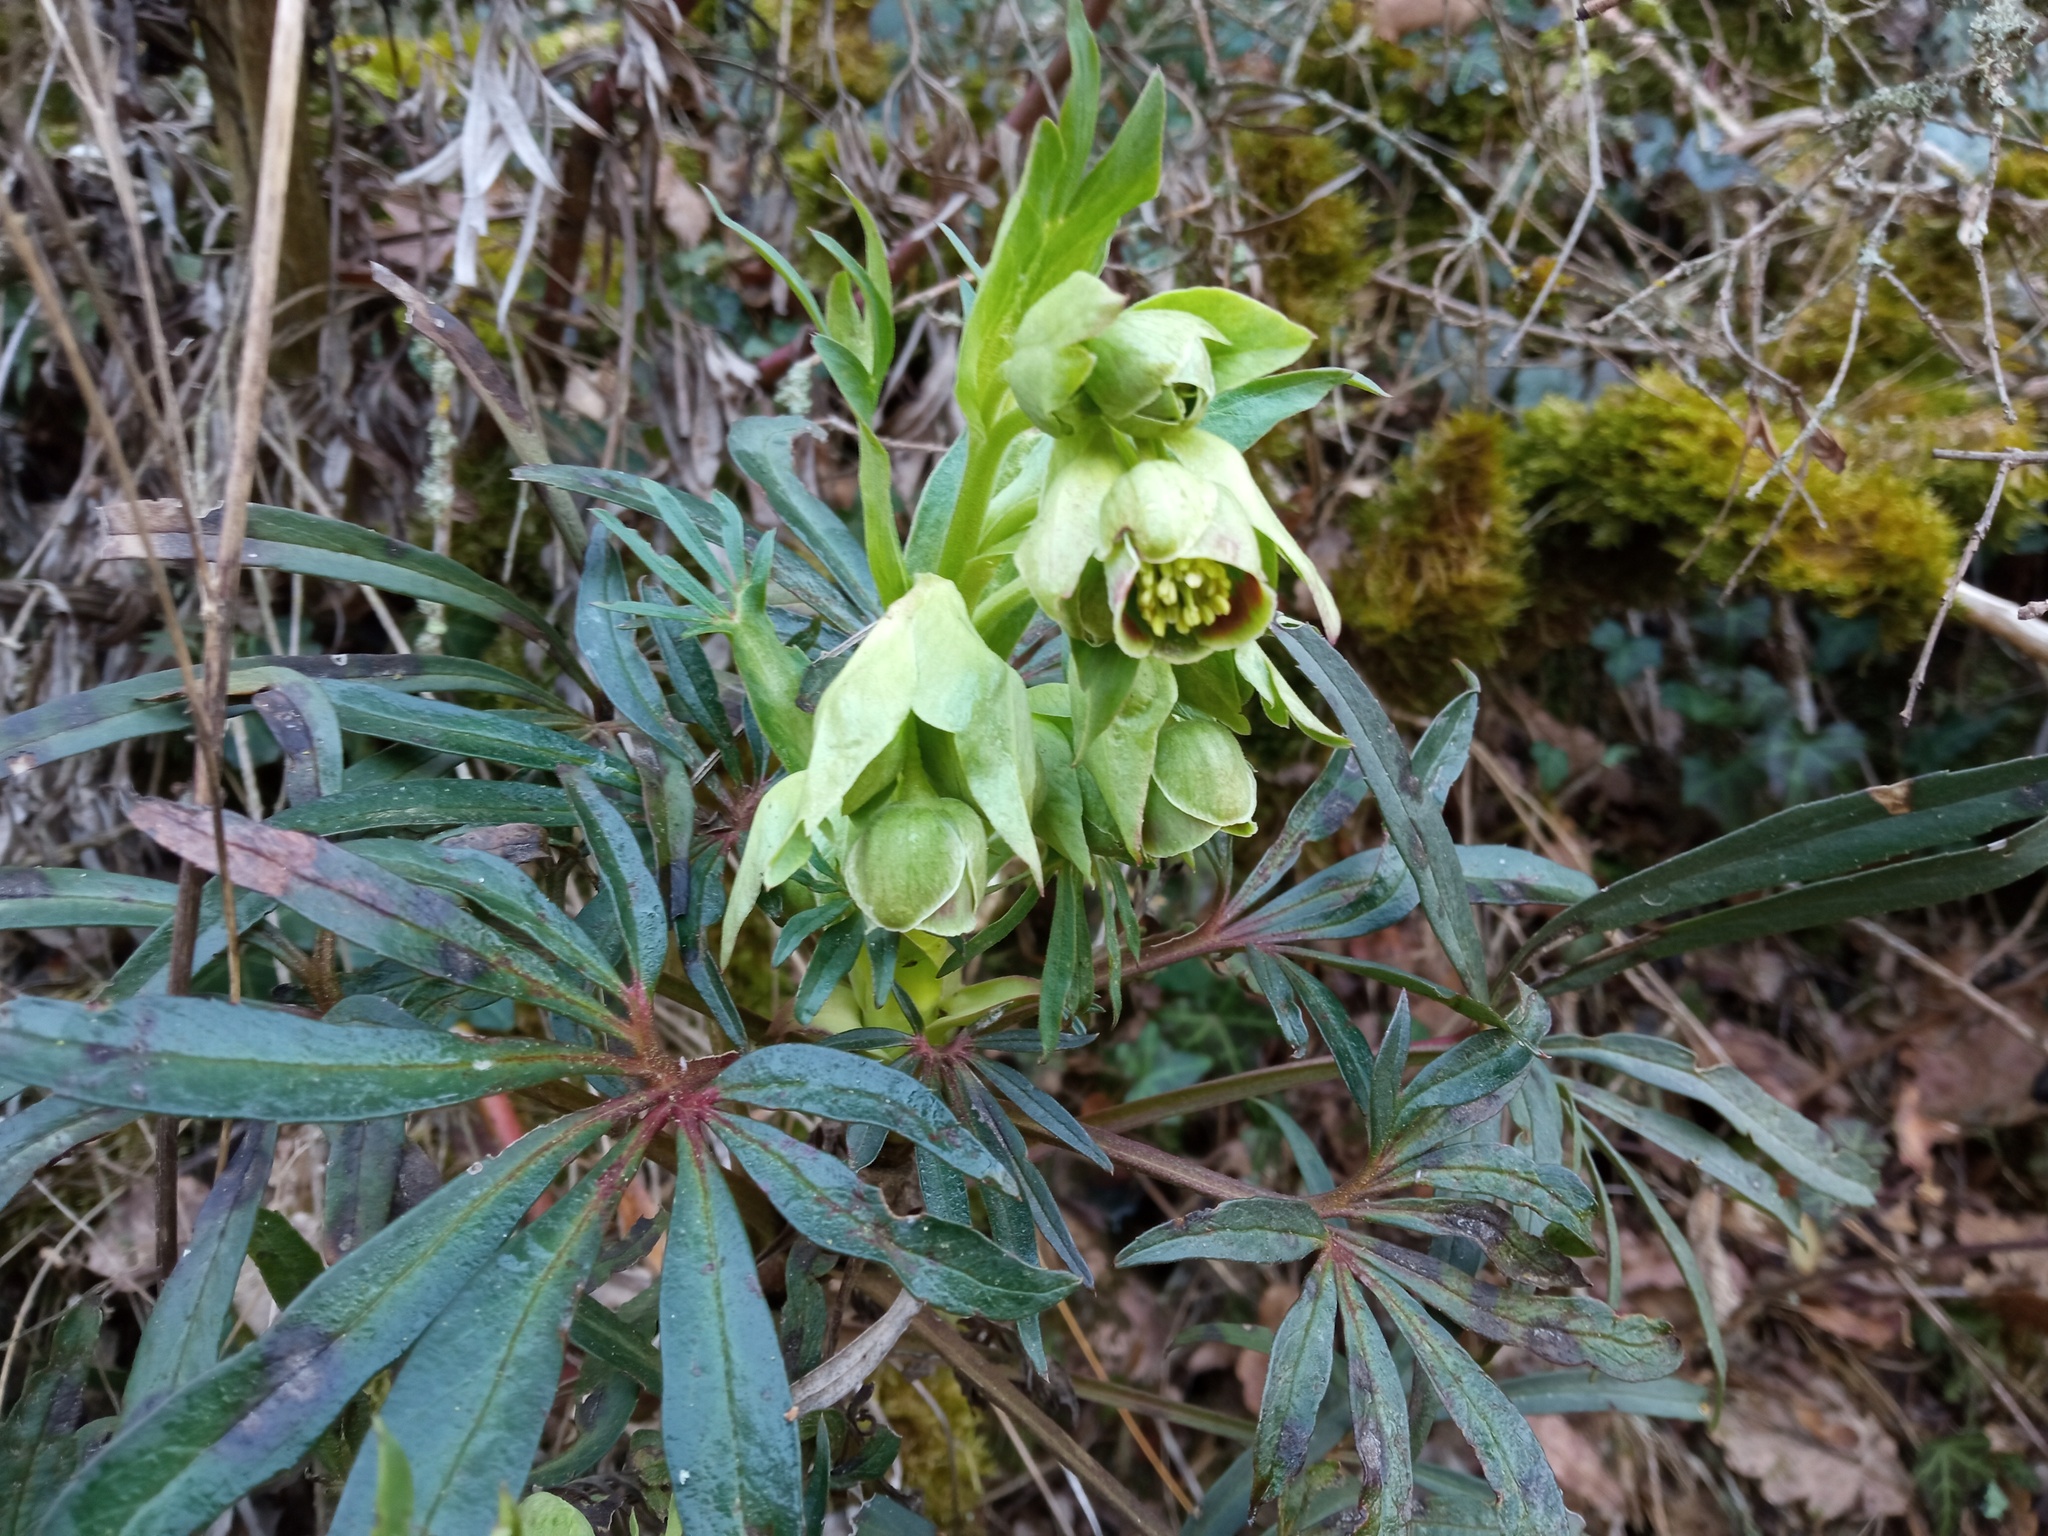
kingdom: Plantae
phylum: Tracheophyta
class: Magnoliopsida
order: Ranunculales
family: Ranunculaceae
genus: Helleborus
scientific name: Helleborus foetidus
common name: Stinking hellebore
